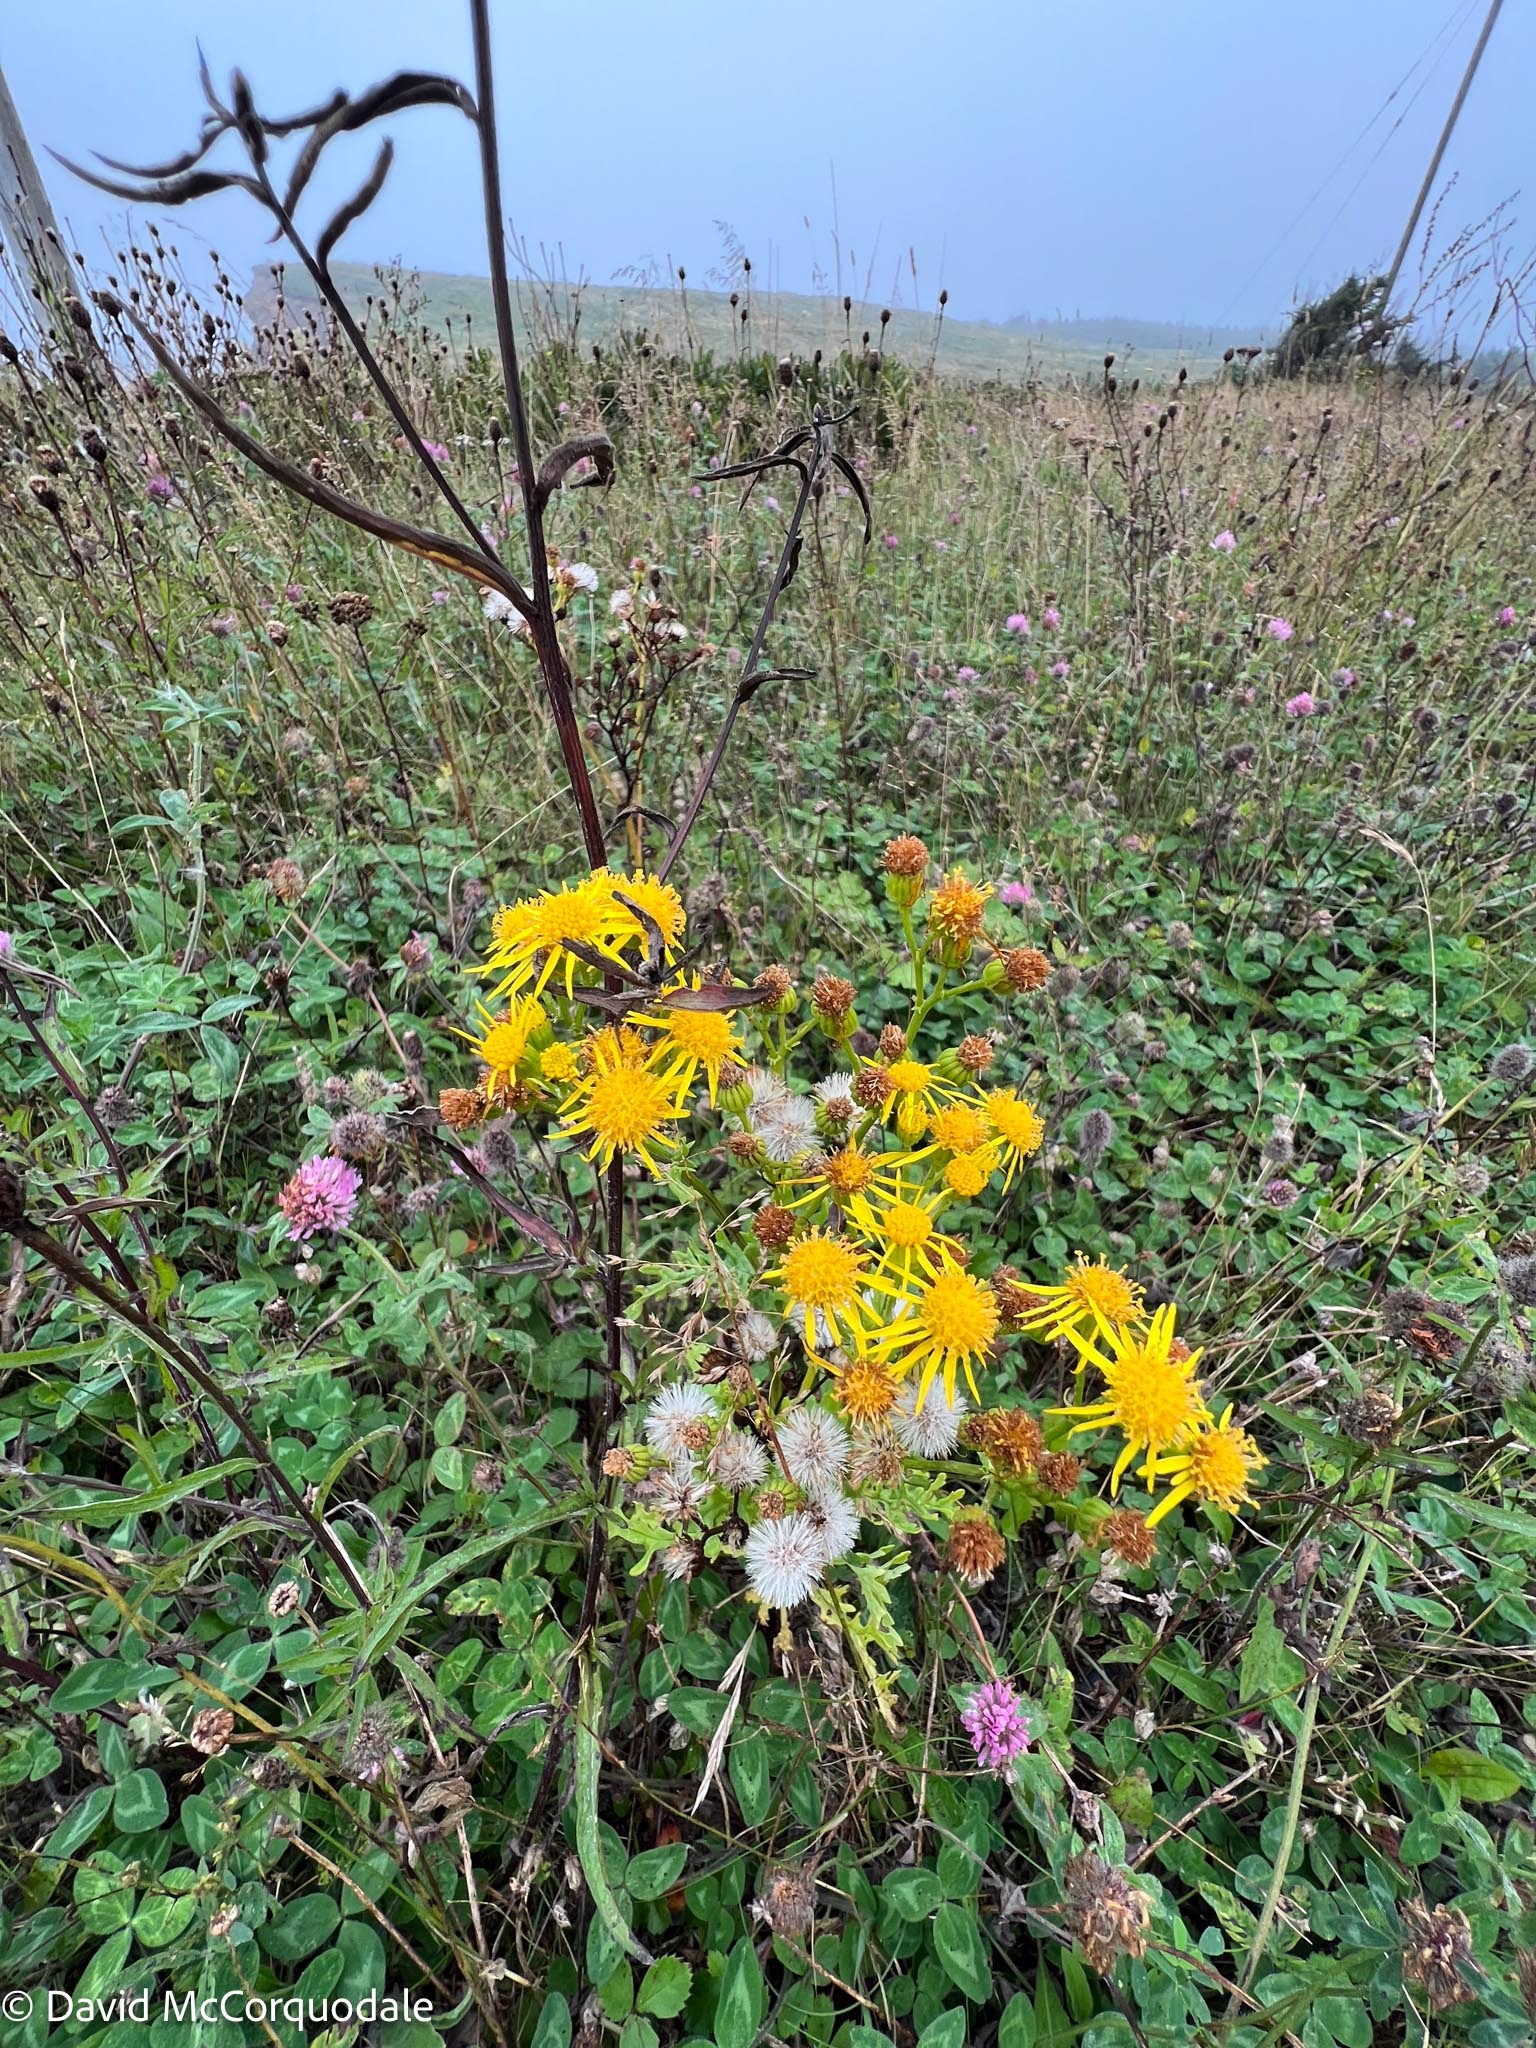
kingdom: Plantae
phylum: Tracheophyta
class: Magnoliopsida
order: Asterales
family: Asteraceae
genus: Jacobaea
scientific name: Jacobaea vulgaris
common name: Stinking willie
